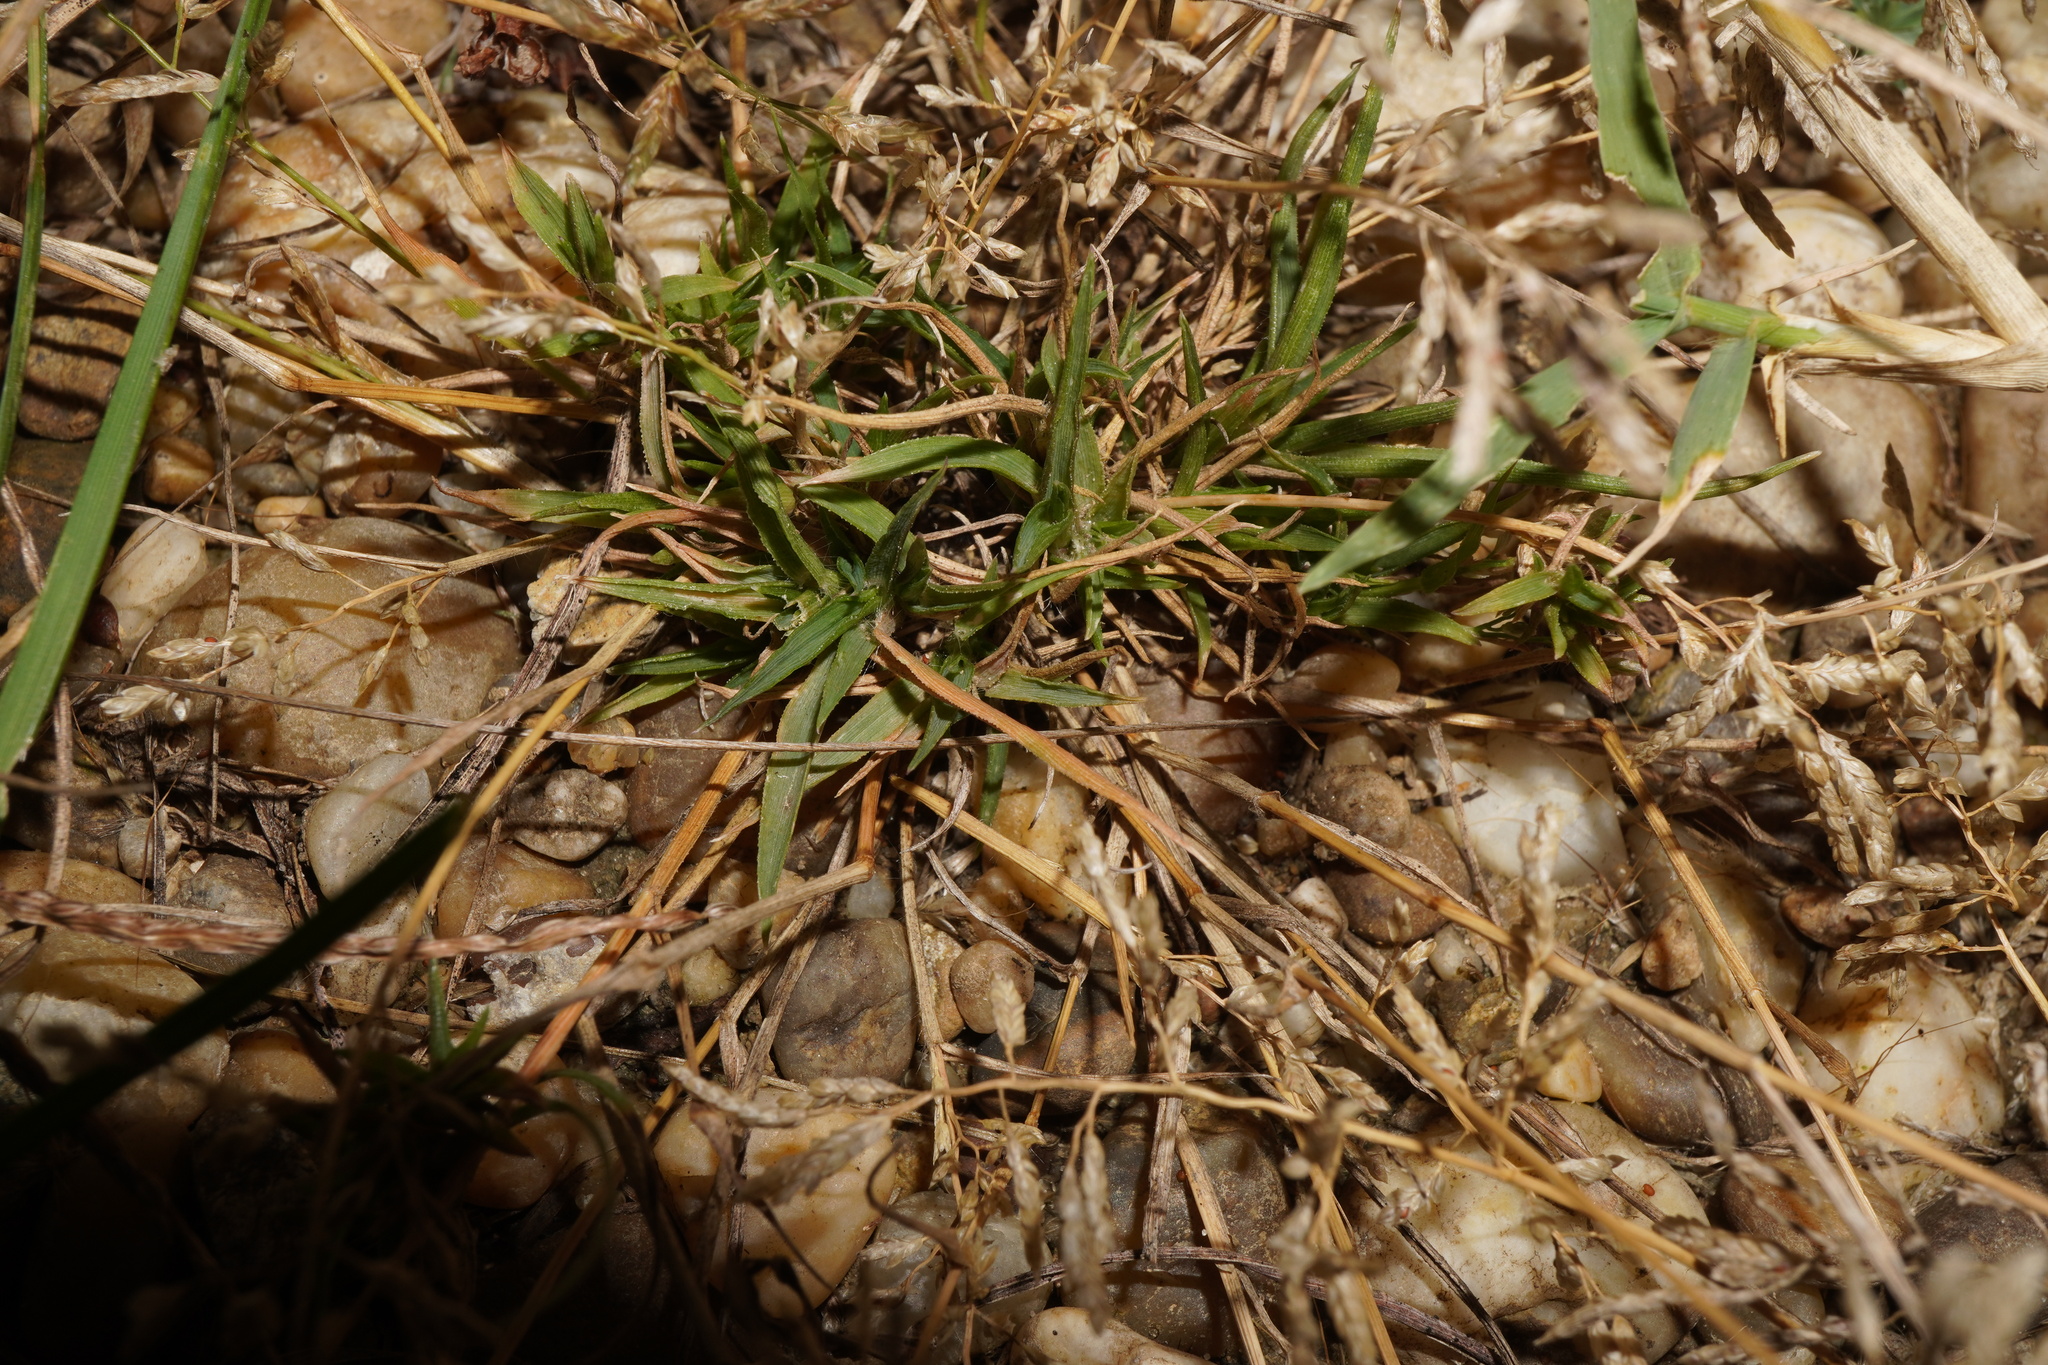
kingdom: Plantae
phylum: Tracheophyta
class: Liliopsida
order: Poales
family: Poaceae
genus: Eragrostis
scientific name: Eragrostis minor
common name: Small love-grass
